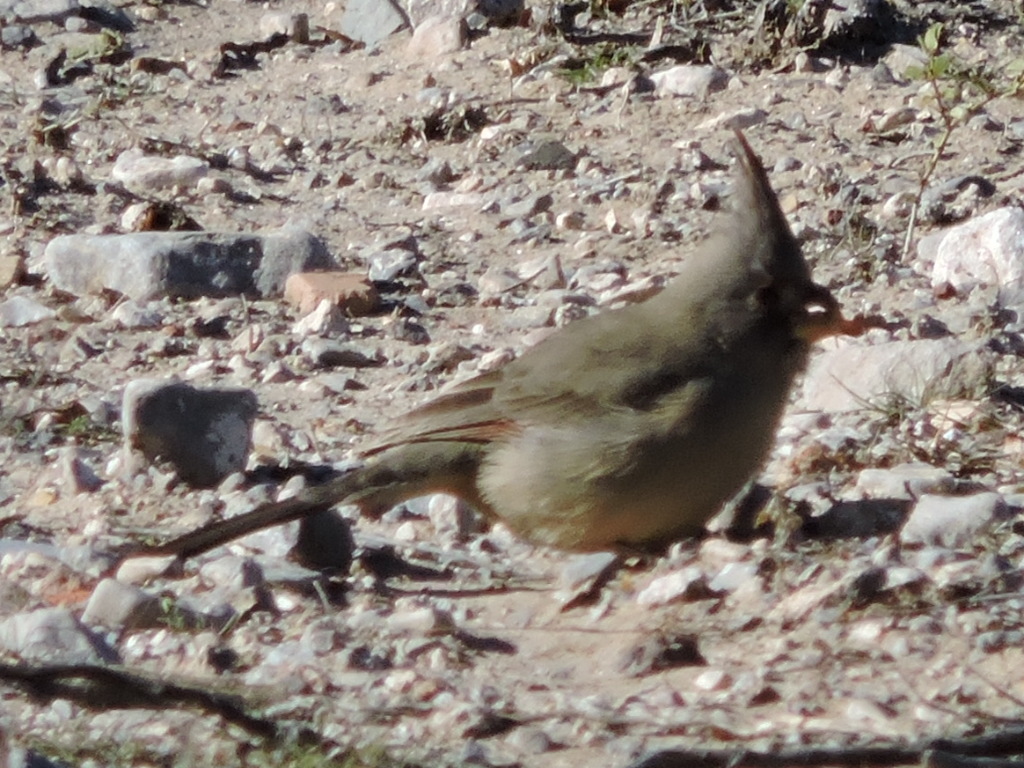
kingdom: Animalia
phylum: Chordata
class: Aves
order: Passeriformes
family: Cardinalidae
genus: Cardinalis
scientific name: Cardinalis sinuatus
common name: Pyrrhuloxia
